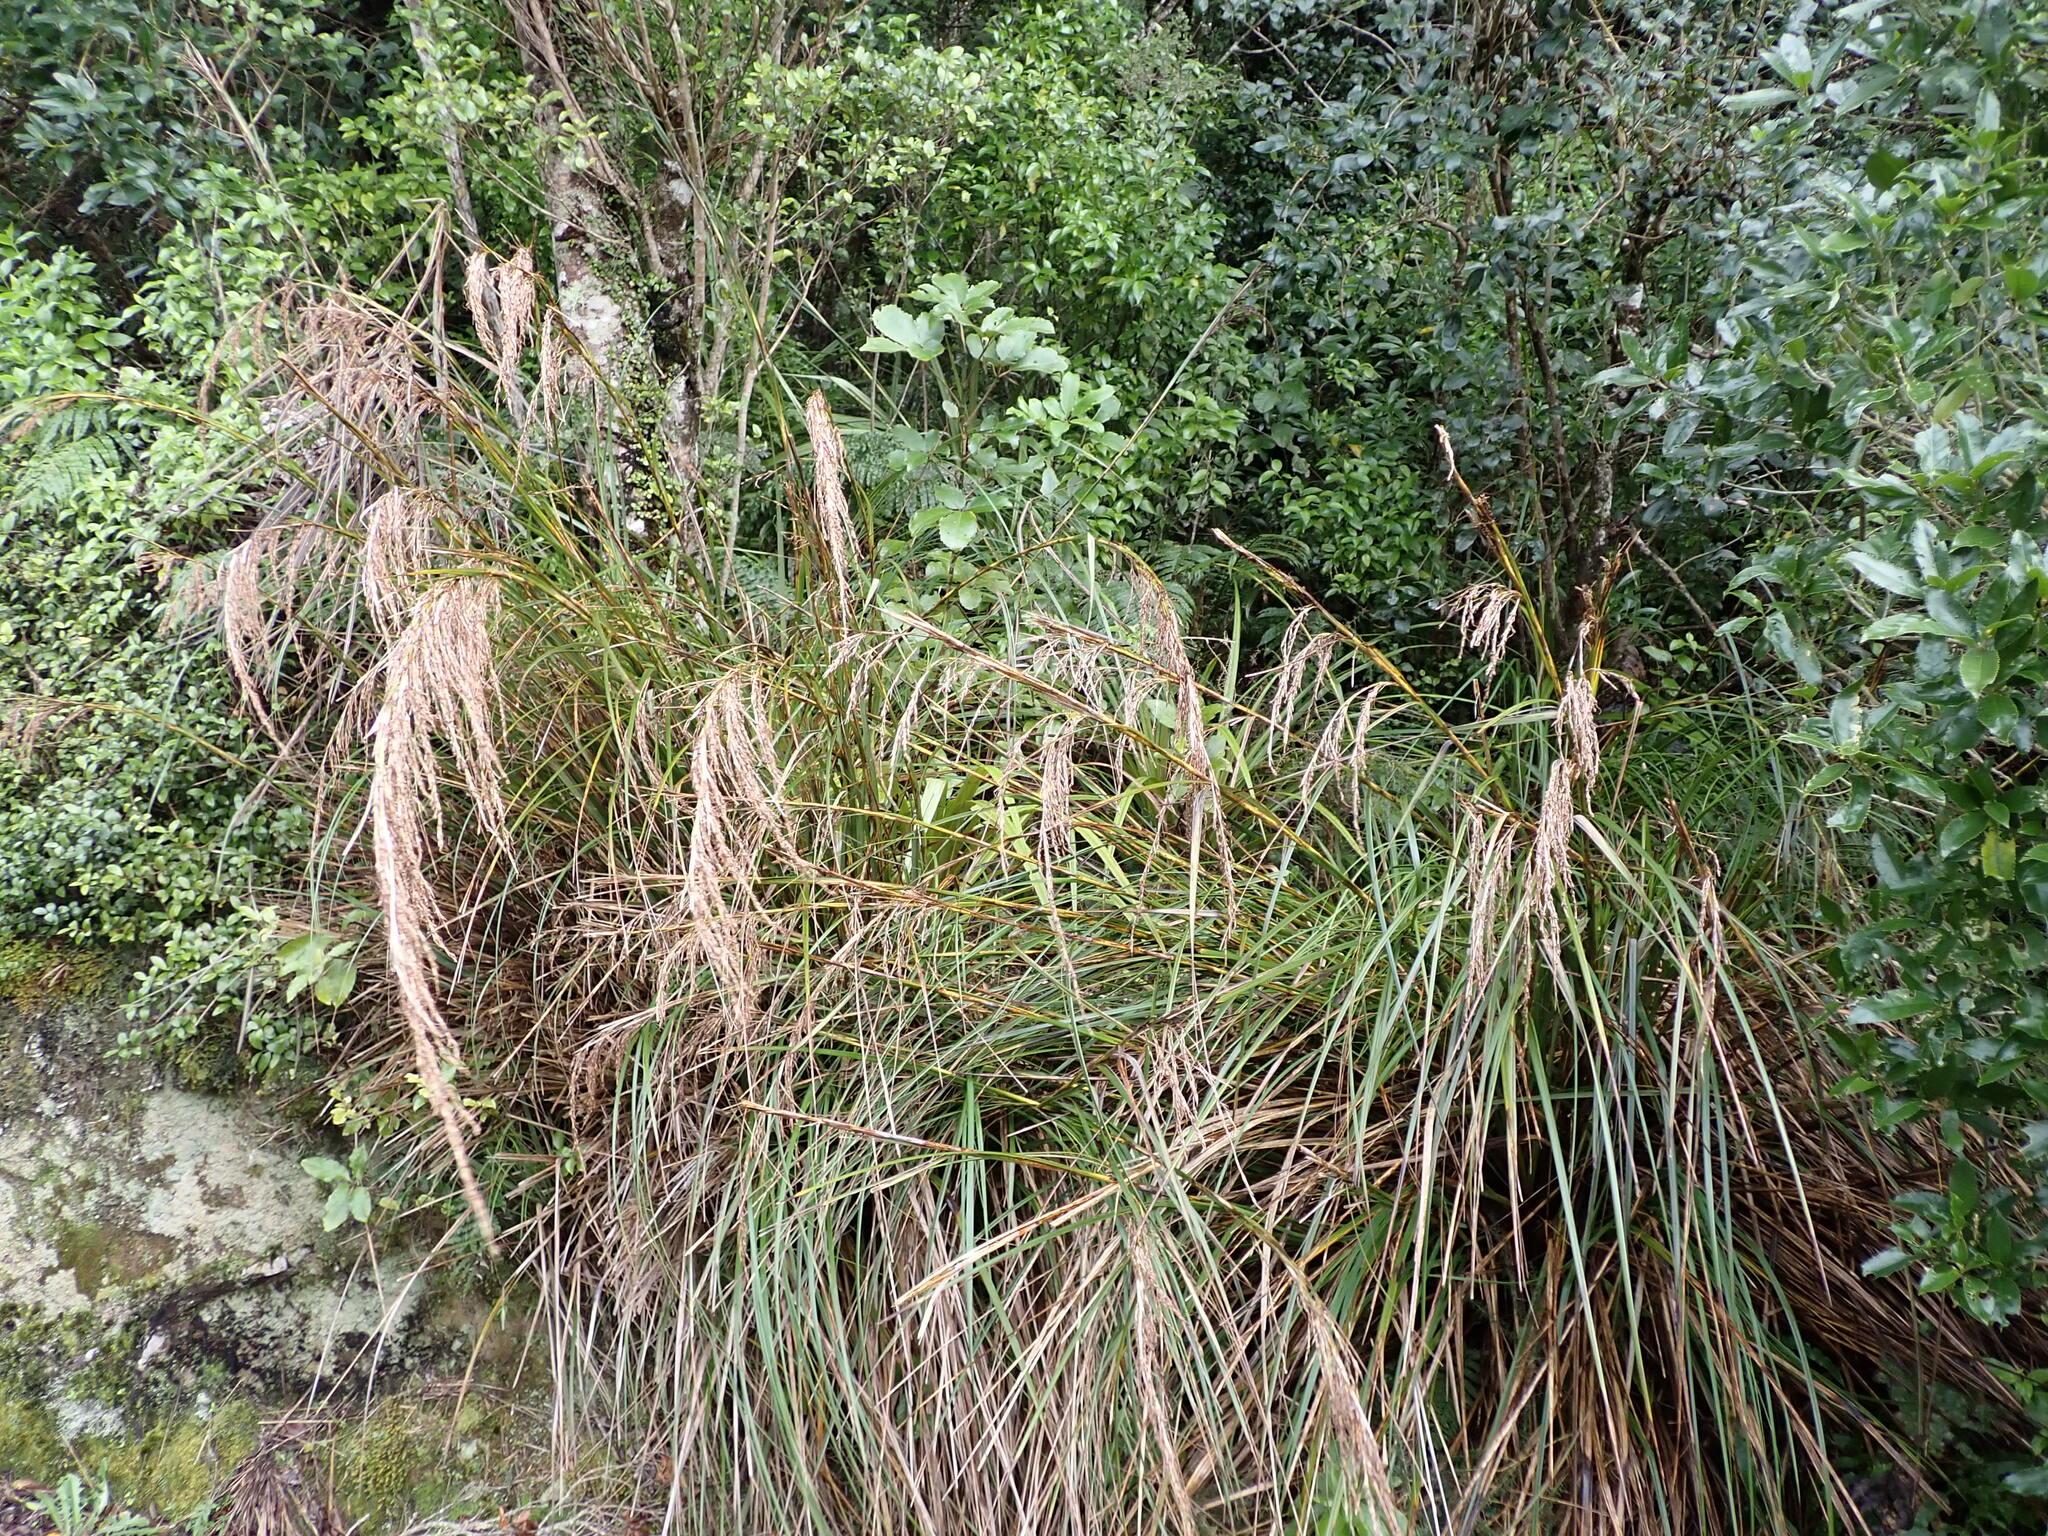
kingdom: Plantae
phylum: Tracheophyta
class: Liliopsida
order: Poales
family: Cyperaceae
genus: Gahnia
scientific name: Gahnia setifolia
